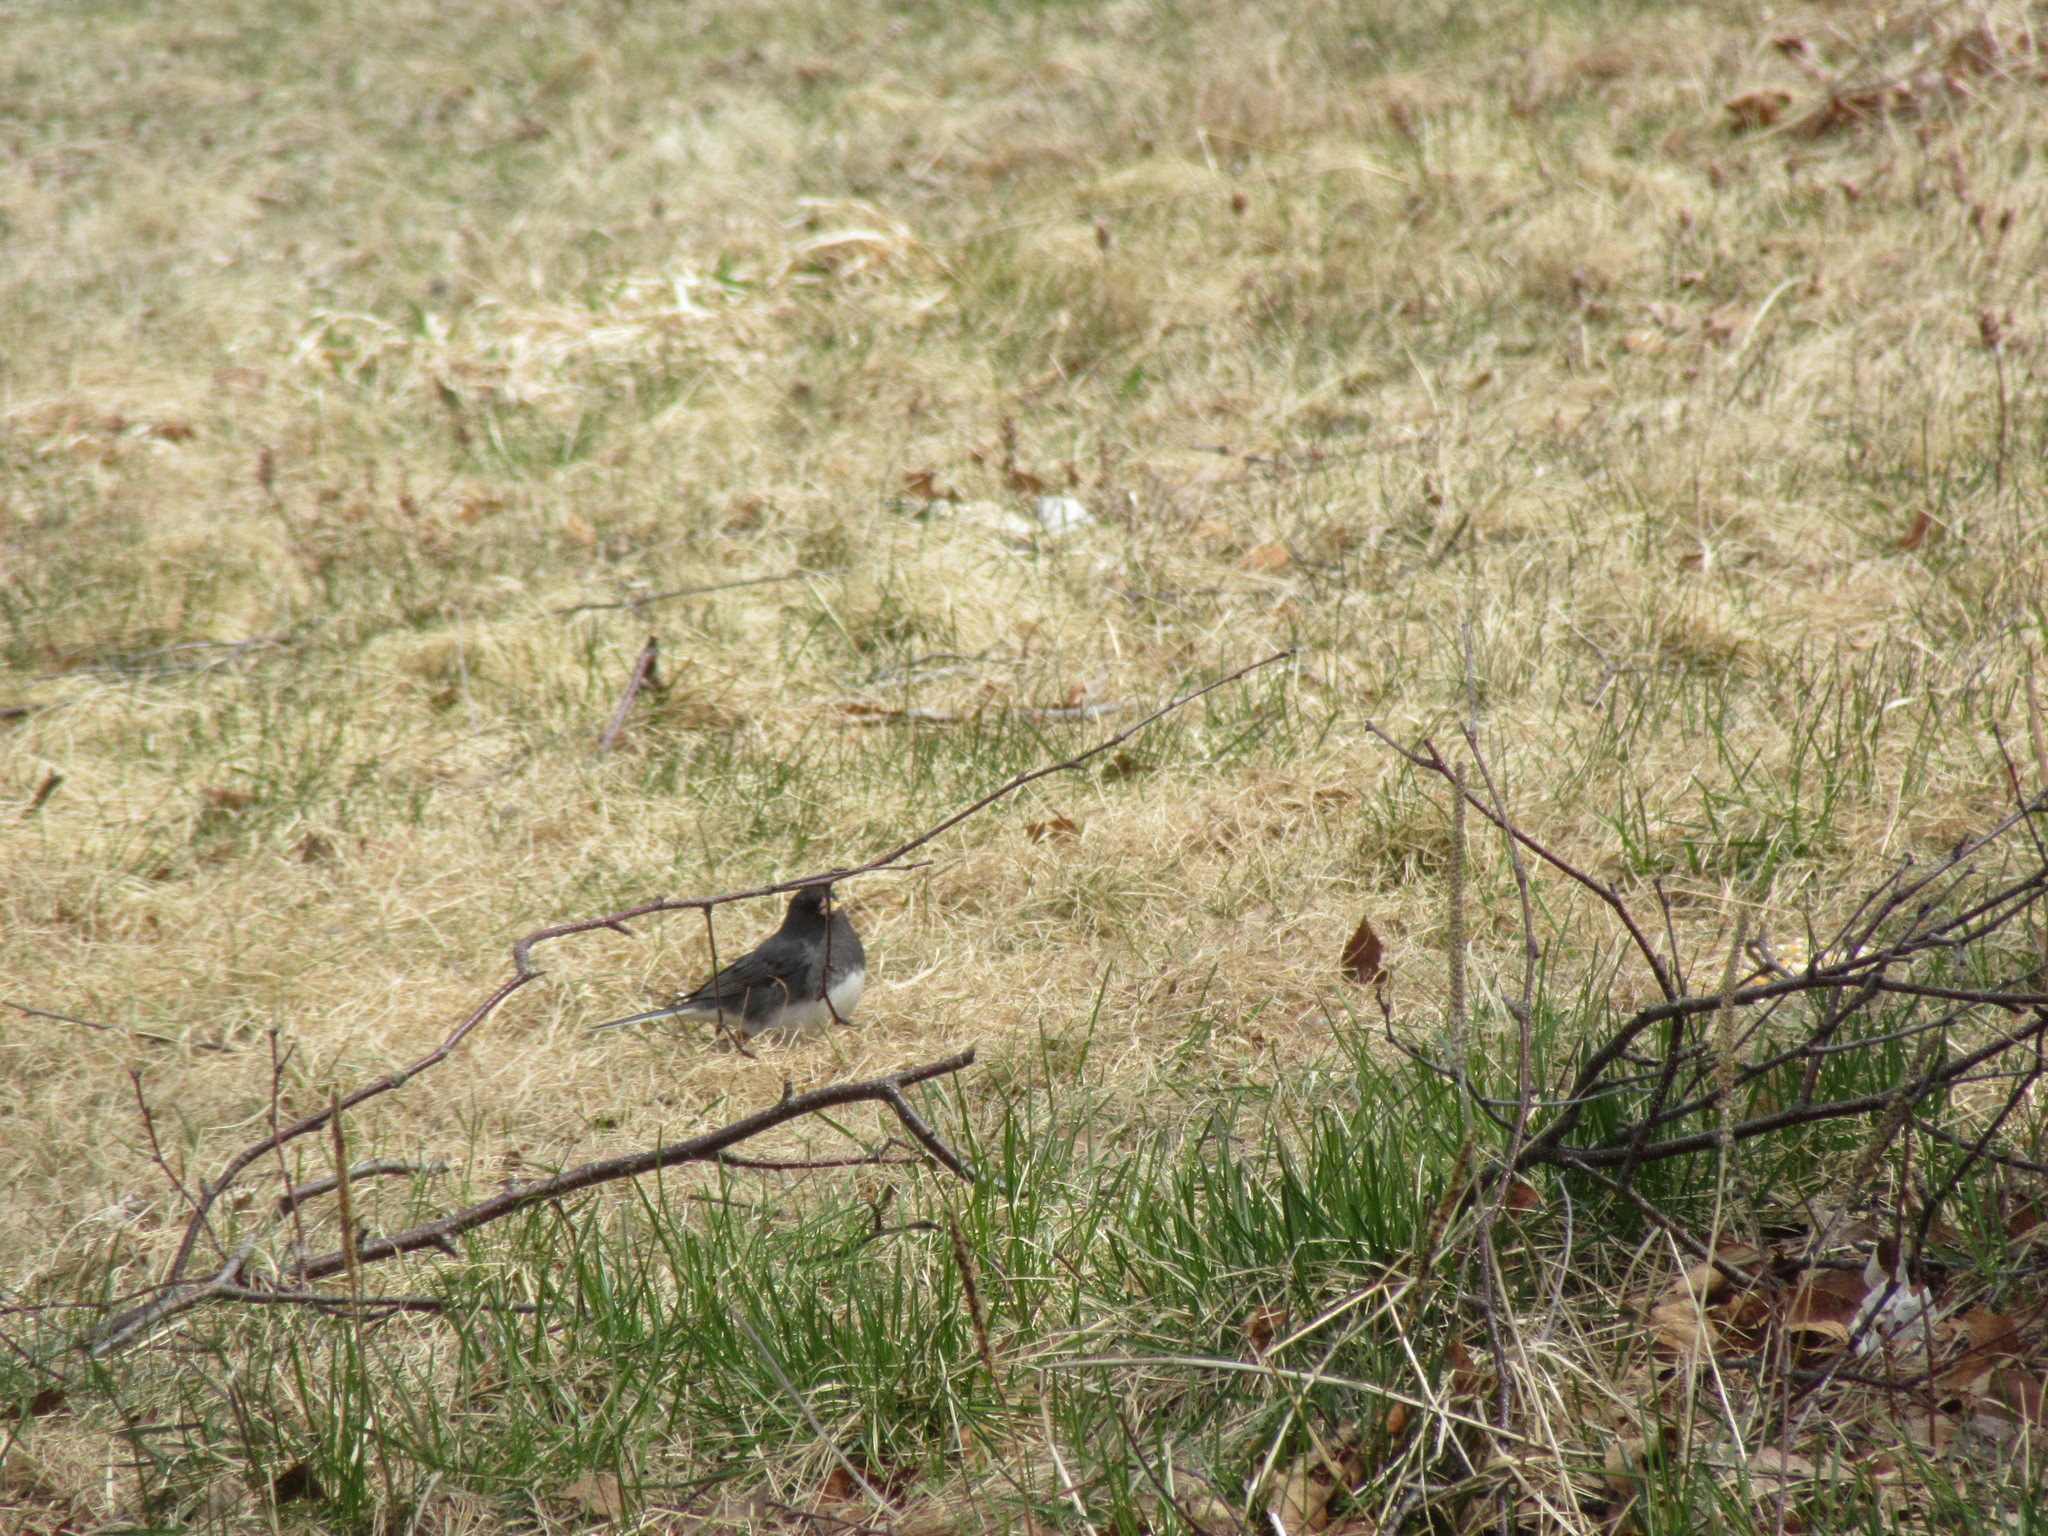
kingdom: Animalia
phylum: Chordata
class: Aves
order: Passeriformes
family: Passerellidae
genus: Junco
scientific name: Junco hyemalis
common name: Dark-eyed junco
